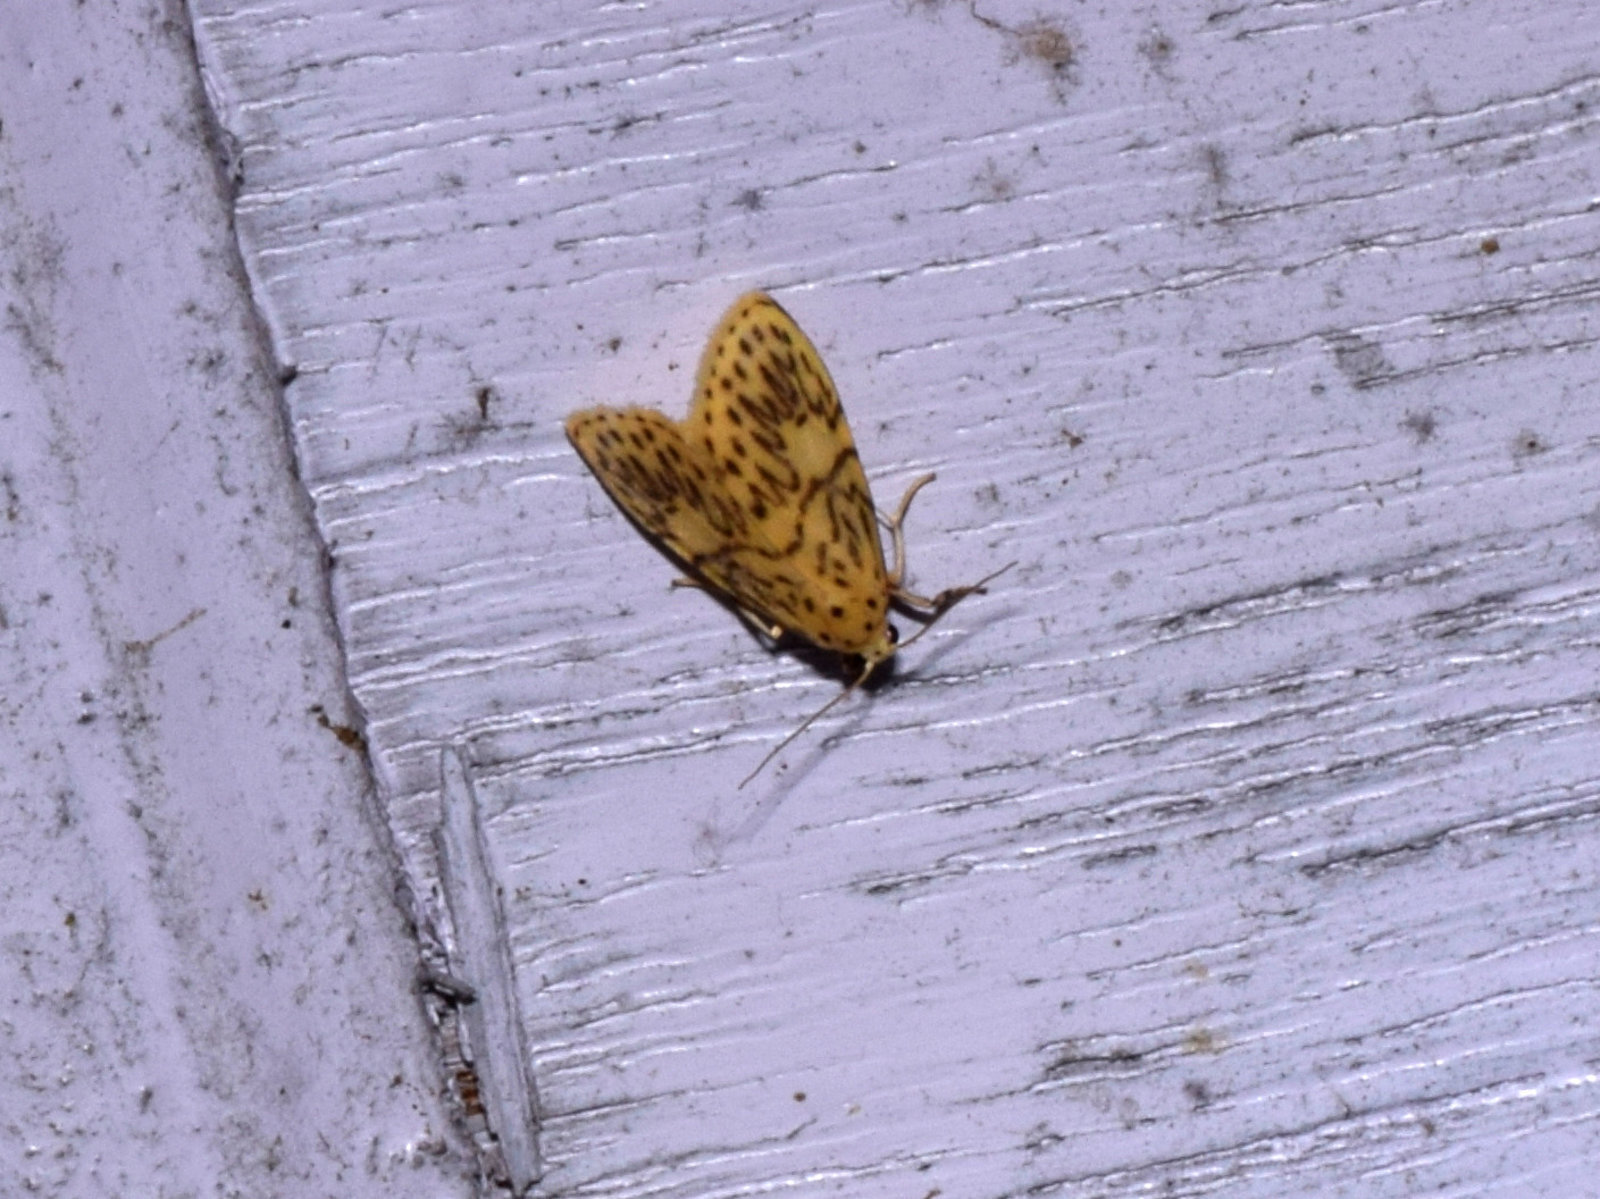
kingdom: Animalia
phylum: Arthropoda
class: Insecta
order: Lepidoptera
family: Erebidae
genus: Pseudobarsine
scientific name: Pseudobarsine bombdilensis
